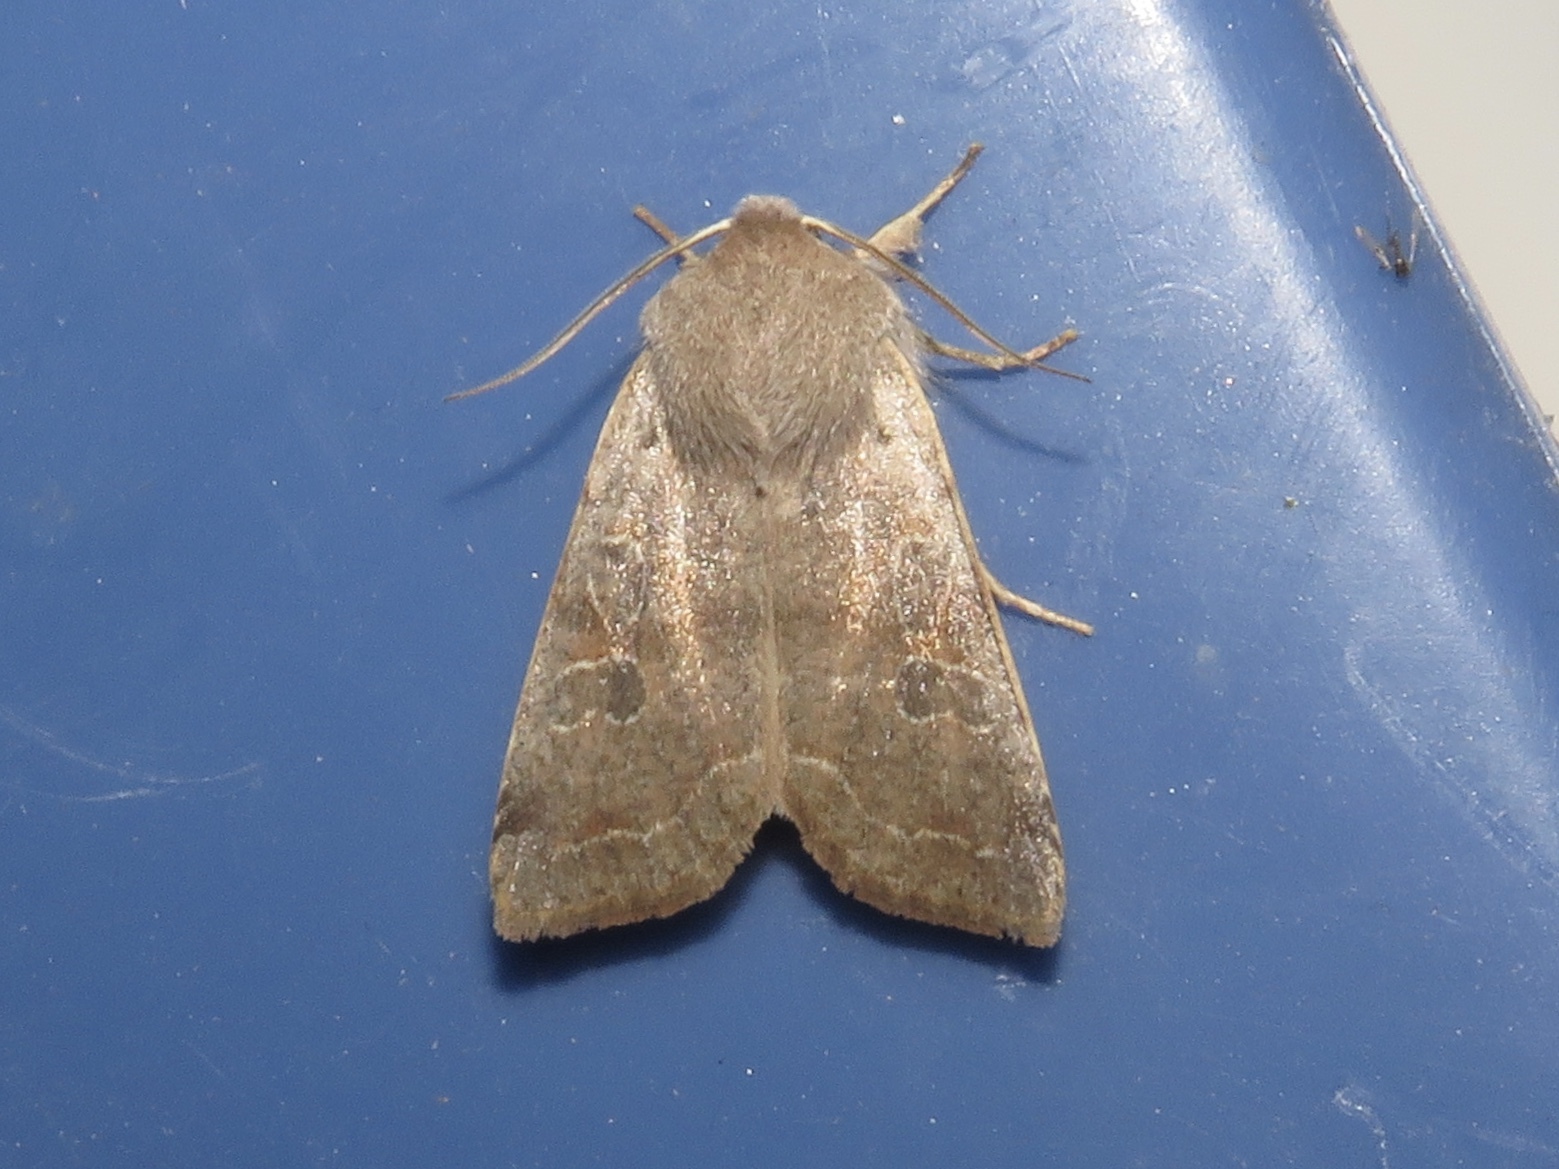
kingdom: Animalia
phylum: Arthropoda
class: Insecta
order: Lepidoptera
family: Noctuidae
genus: Orthosia
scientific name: Orthosia hibisci
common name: Green fruitworm
